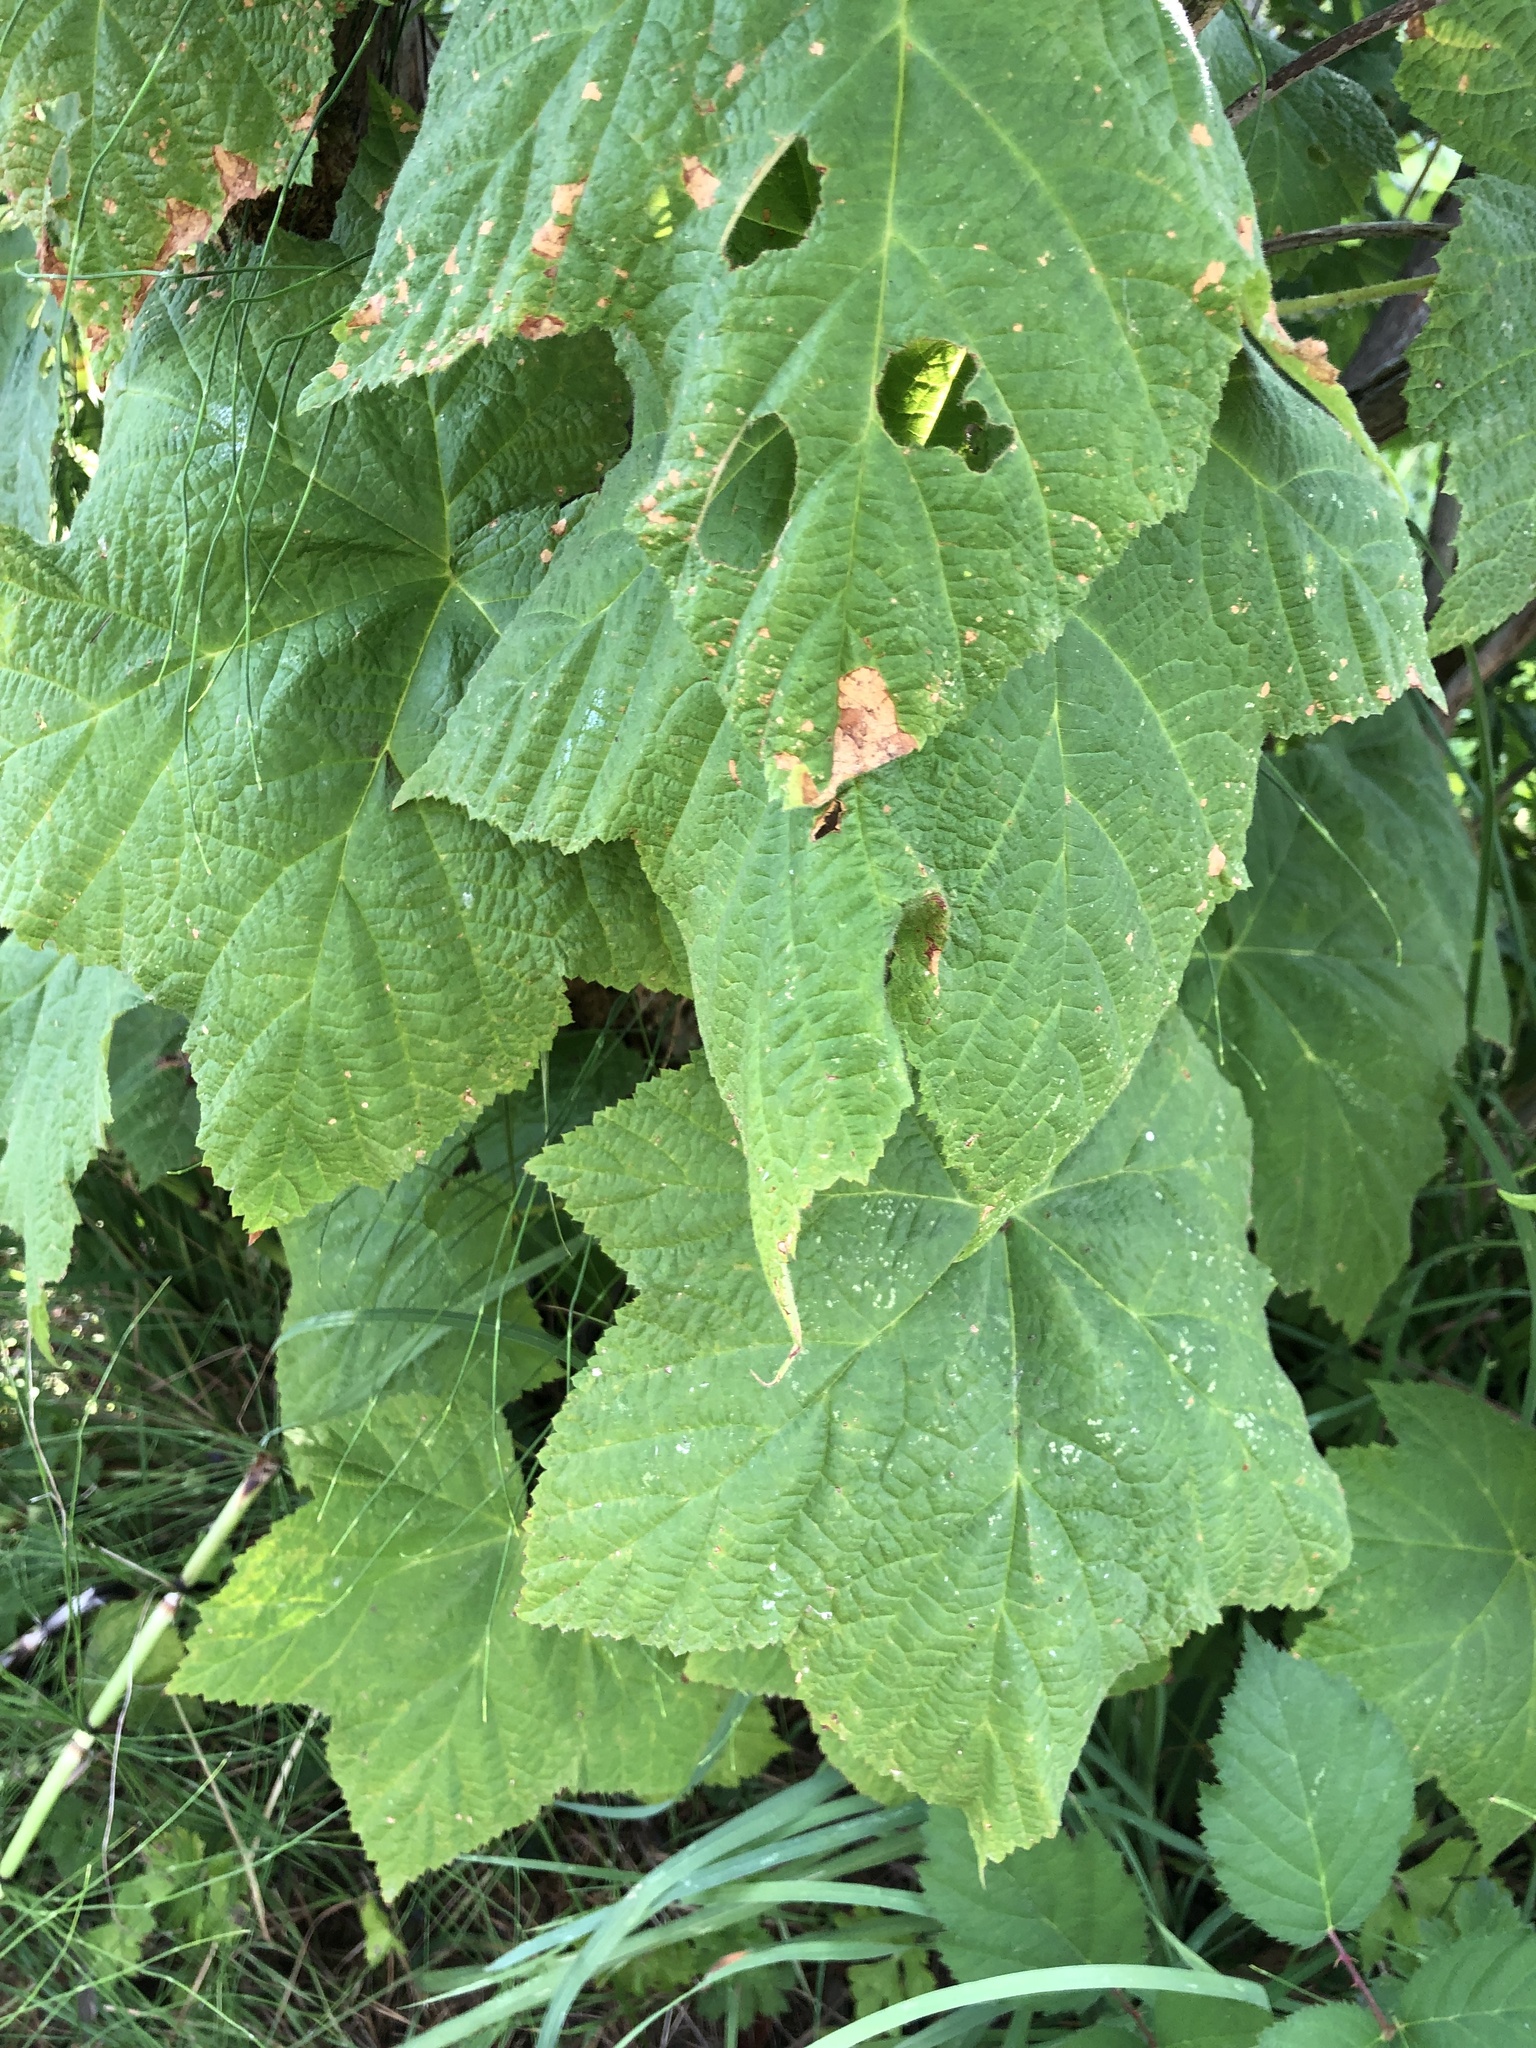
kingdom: Plantae
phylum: Tracheophyta
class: Magnoliopsida
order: Rosales
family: Rosaceae
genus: Rubus
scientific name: Rubus parviflorus
